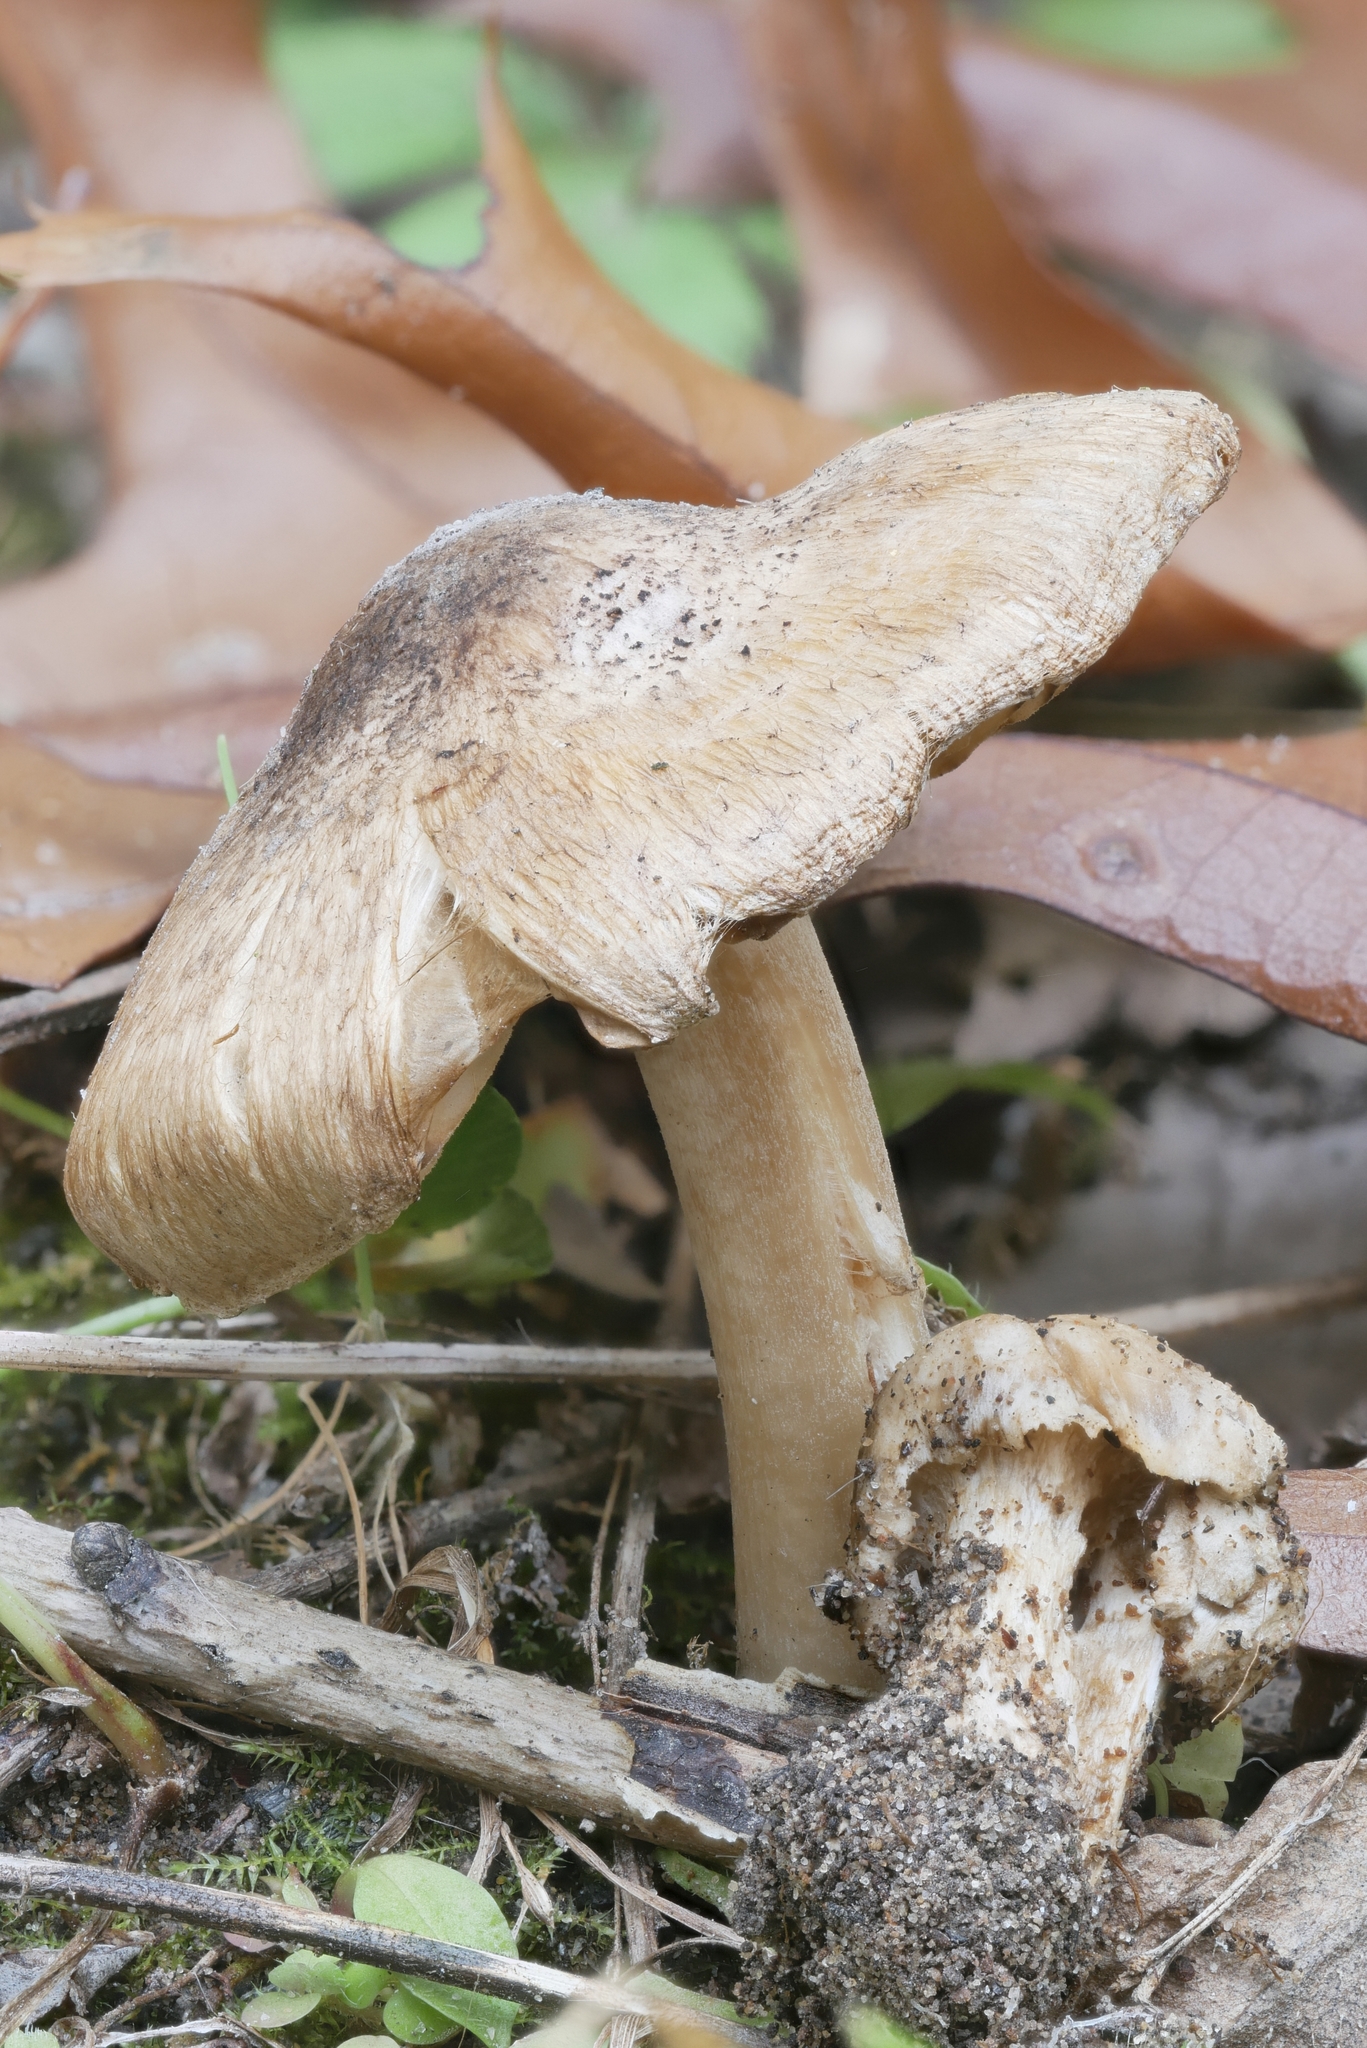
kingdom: Fungi
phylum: Basidiomycota
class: Agaricomycetes
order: Agaricales
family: Inocybaceae
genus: Inocybe
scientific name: Inocybe dunensis
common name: Dune fibrecap
